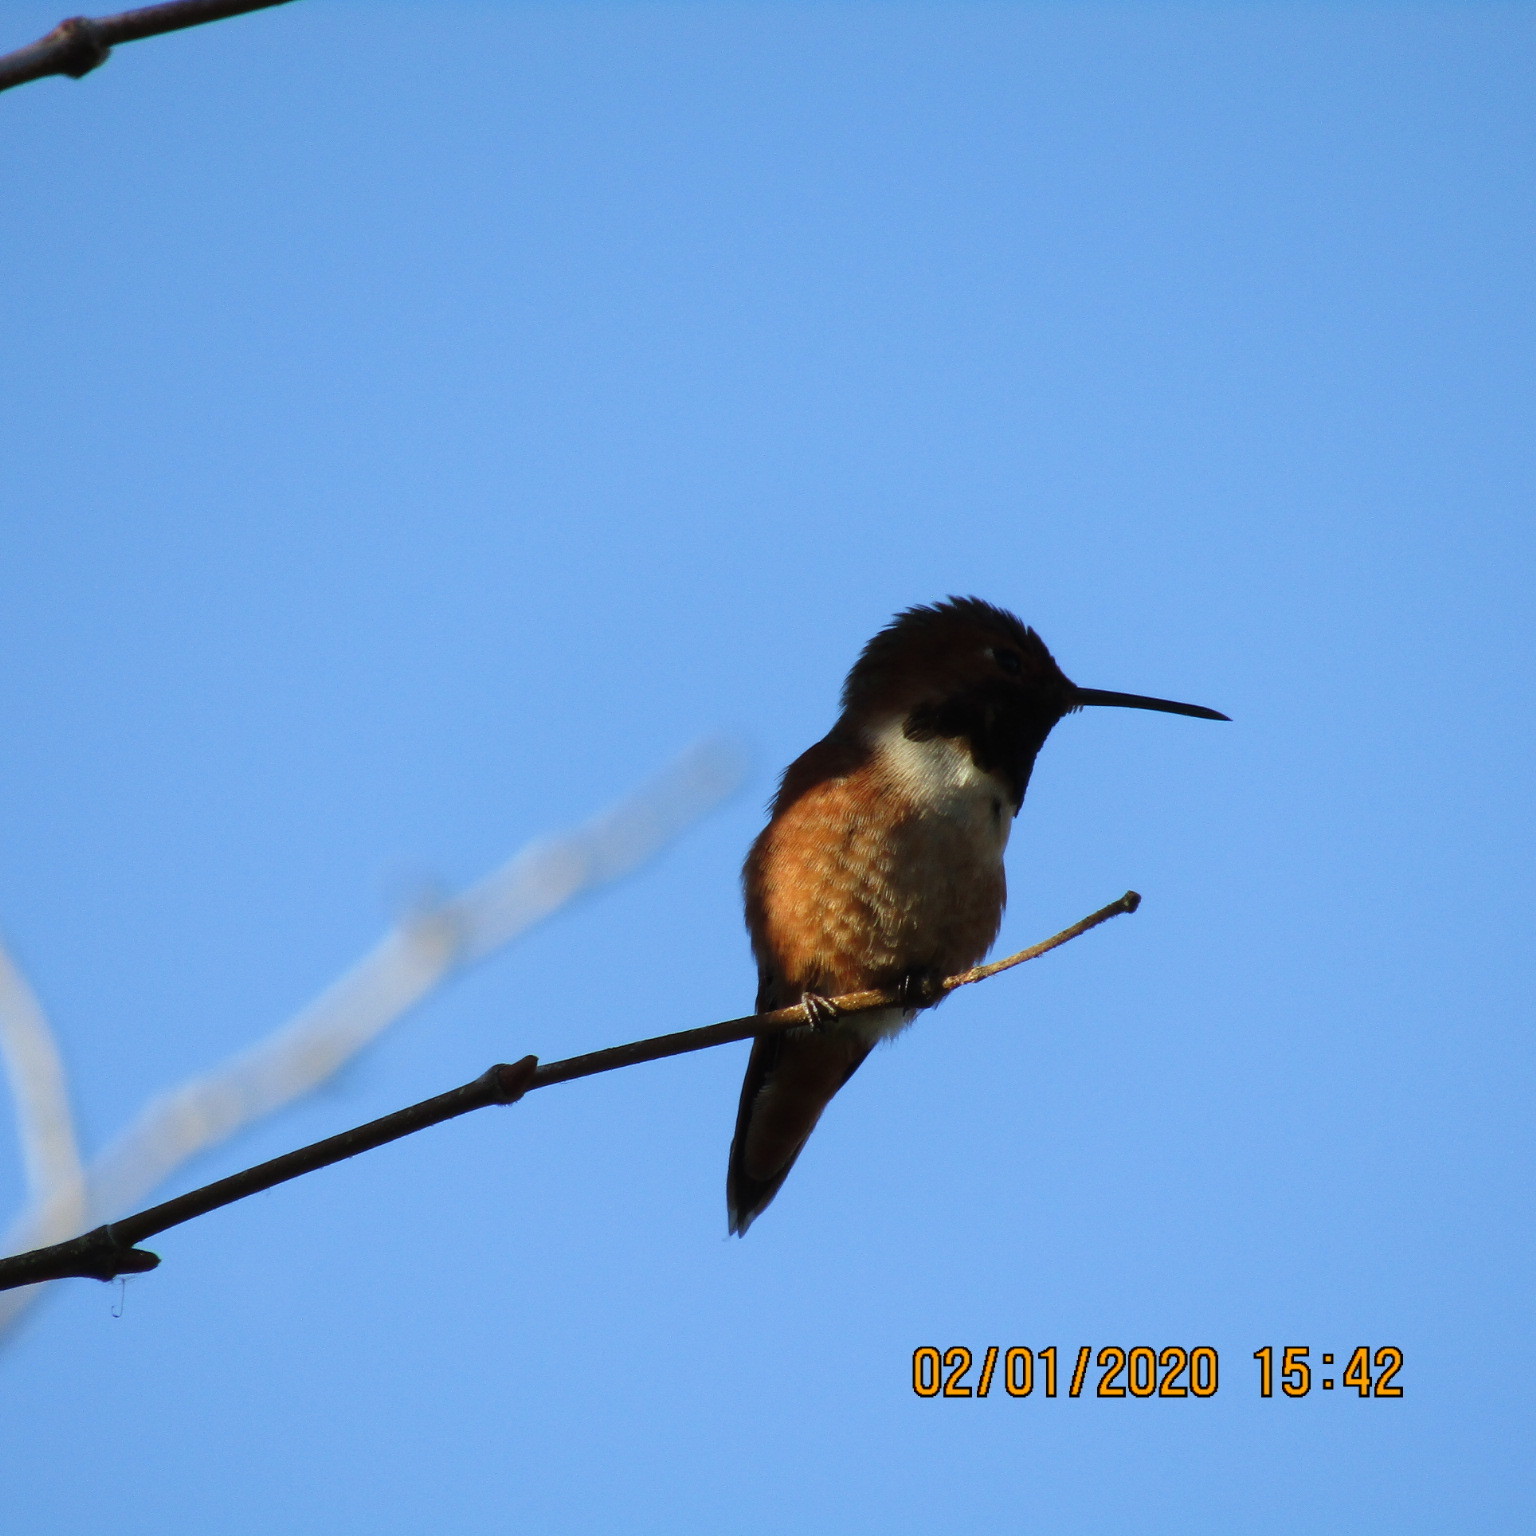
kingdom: Animalia
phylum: Chordata
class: Aves
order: Apodiformes
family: Trochilidae
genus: Selasphorus
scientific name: Selasphorus sasin
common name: Allen's hummingbird
